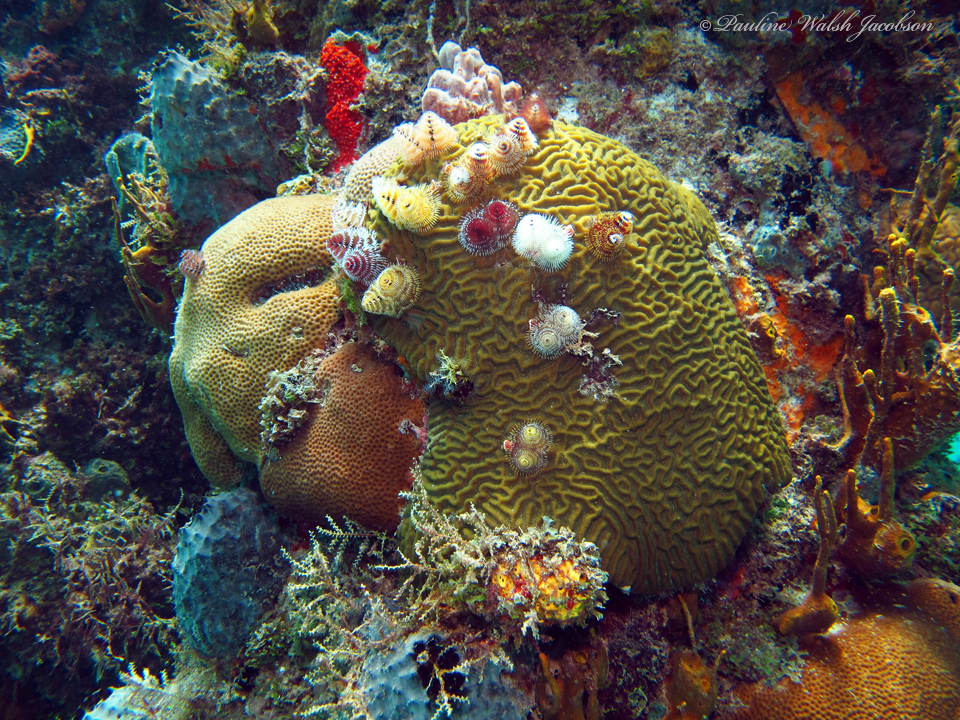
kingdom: Animalia
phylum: Annelida
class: Polychaeta
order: Sabellida
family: Serpulidae
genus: Spirobranchus
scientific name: Spirobranchus giganteus
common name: Christmas tree worm
